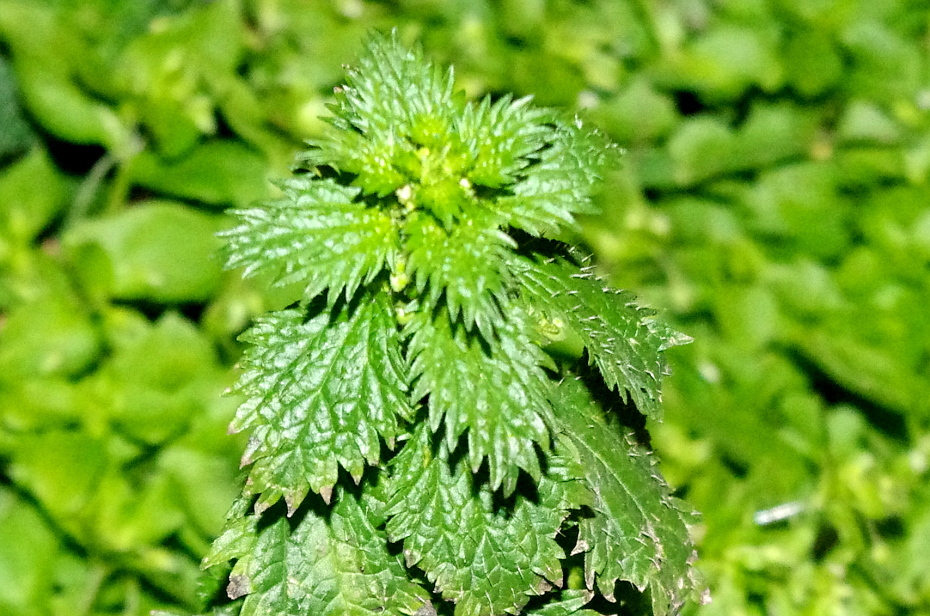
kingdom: Plantae
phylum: Tracheophyta
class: Magnoliopsida
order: Rosales
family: Urticaceae
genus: Urtica
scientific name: Urtica urens
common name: Dwarf nettle
